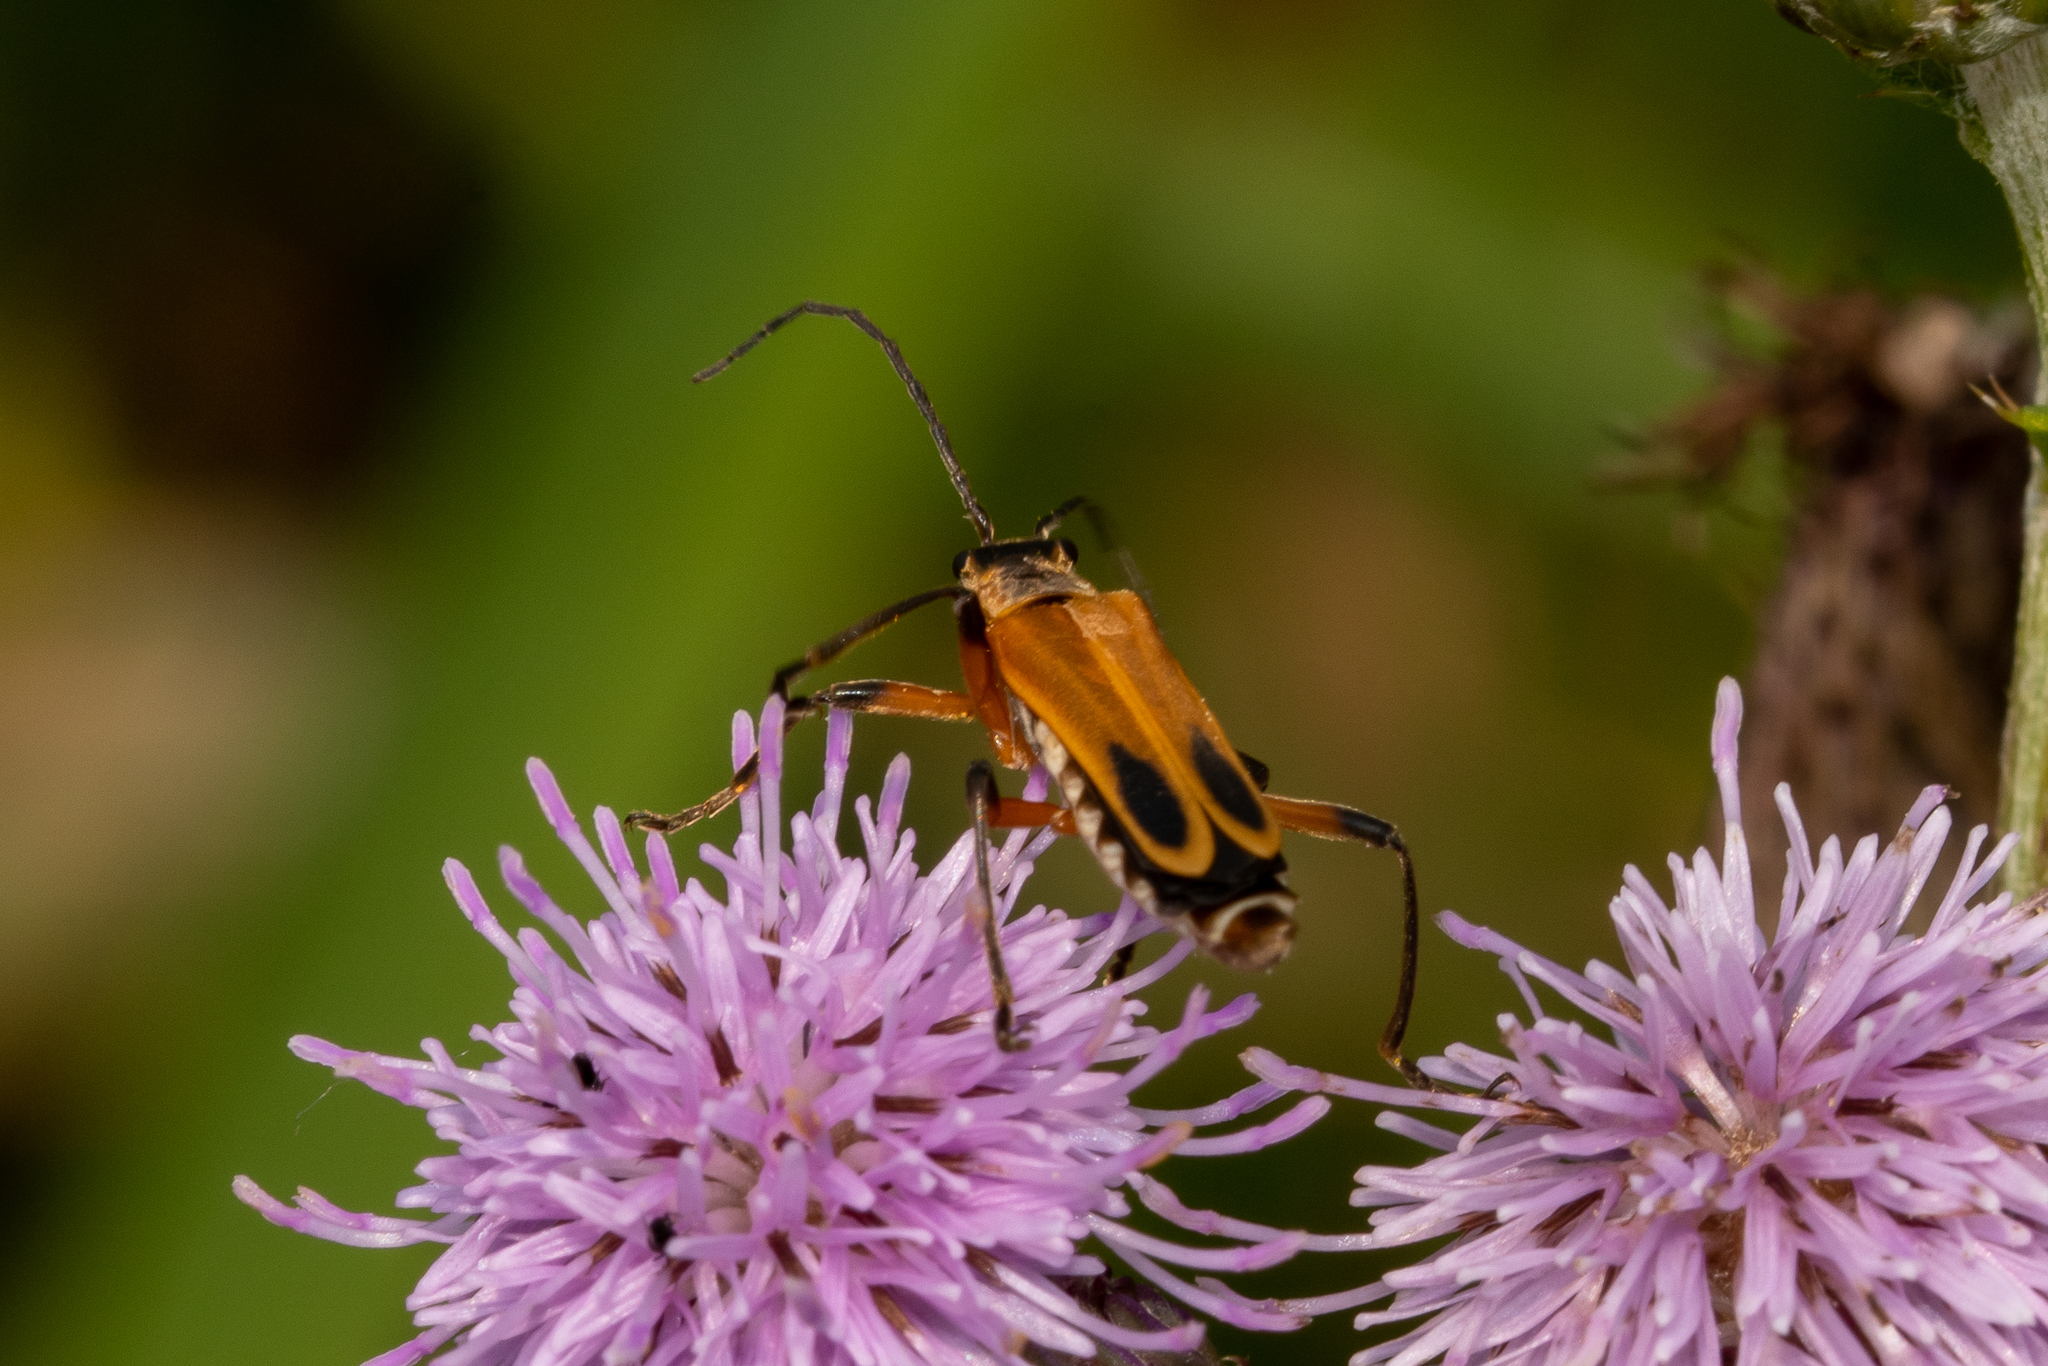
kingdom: Animalia
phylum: Arthropoda
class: Insecta
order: Coleoptera
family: Cantharidae
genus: Chauliognathus
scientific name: Chauliognathus marginatus
